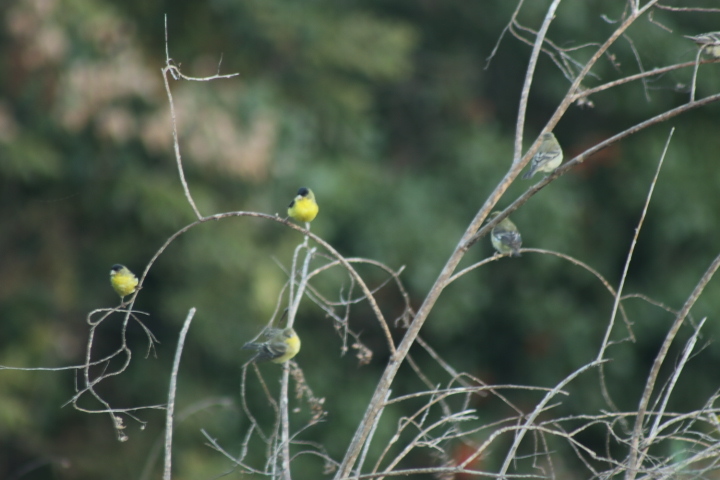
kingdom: Animalia
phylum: Chordata
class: Aves
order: Passeriformes
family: Fringillidae
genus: Spinus
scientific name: Spinus psaltria
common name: Lesser goldfinch
